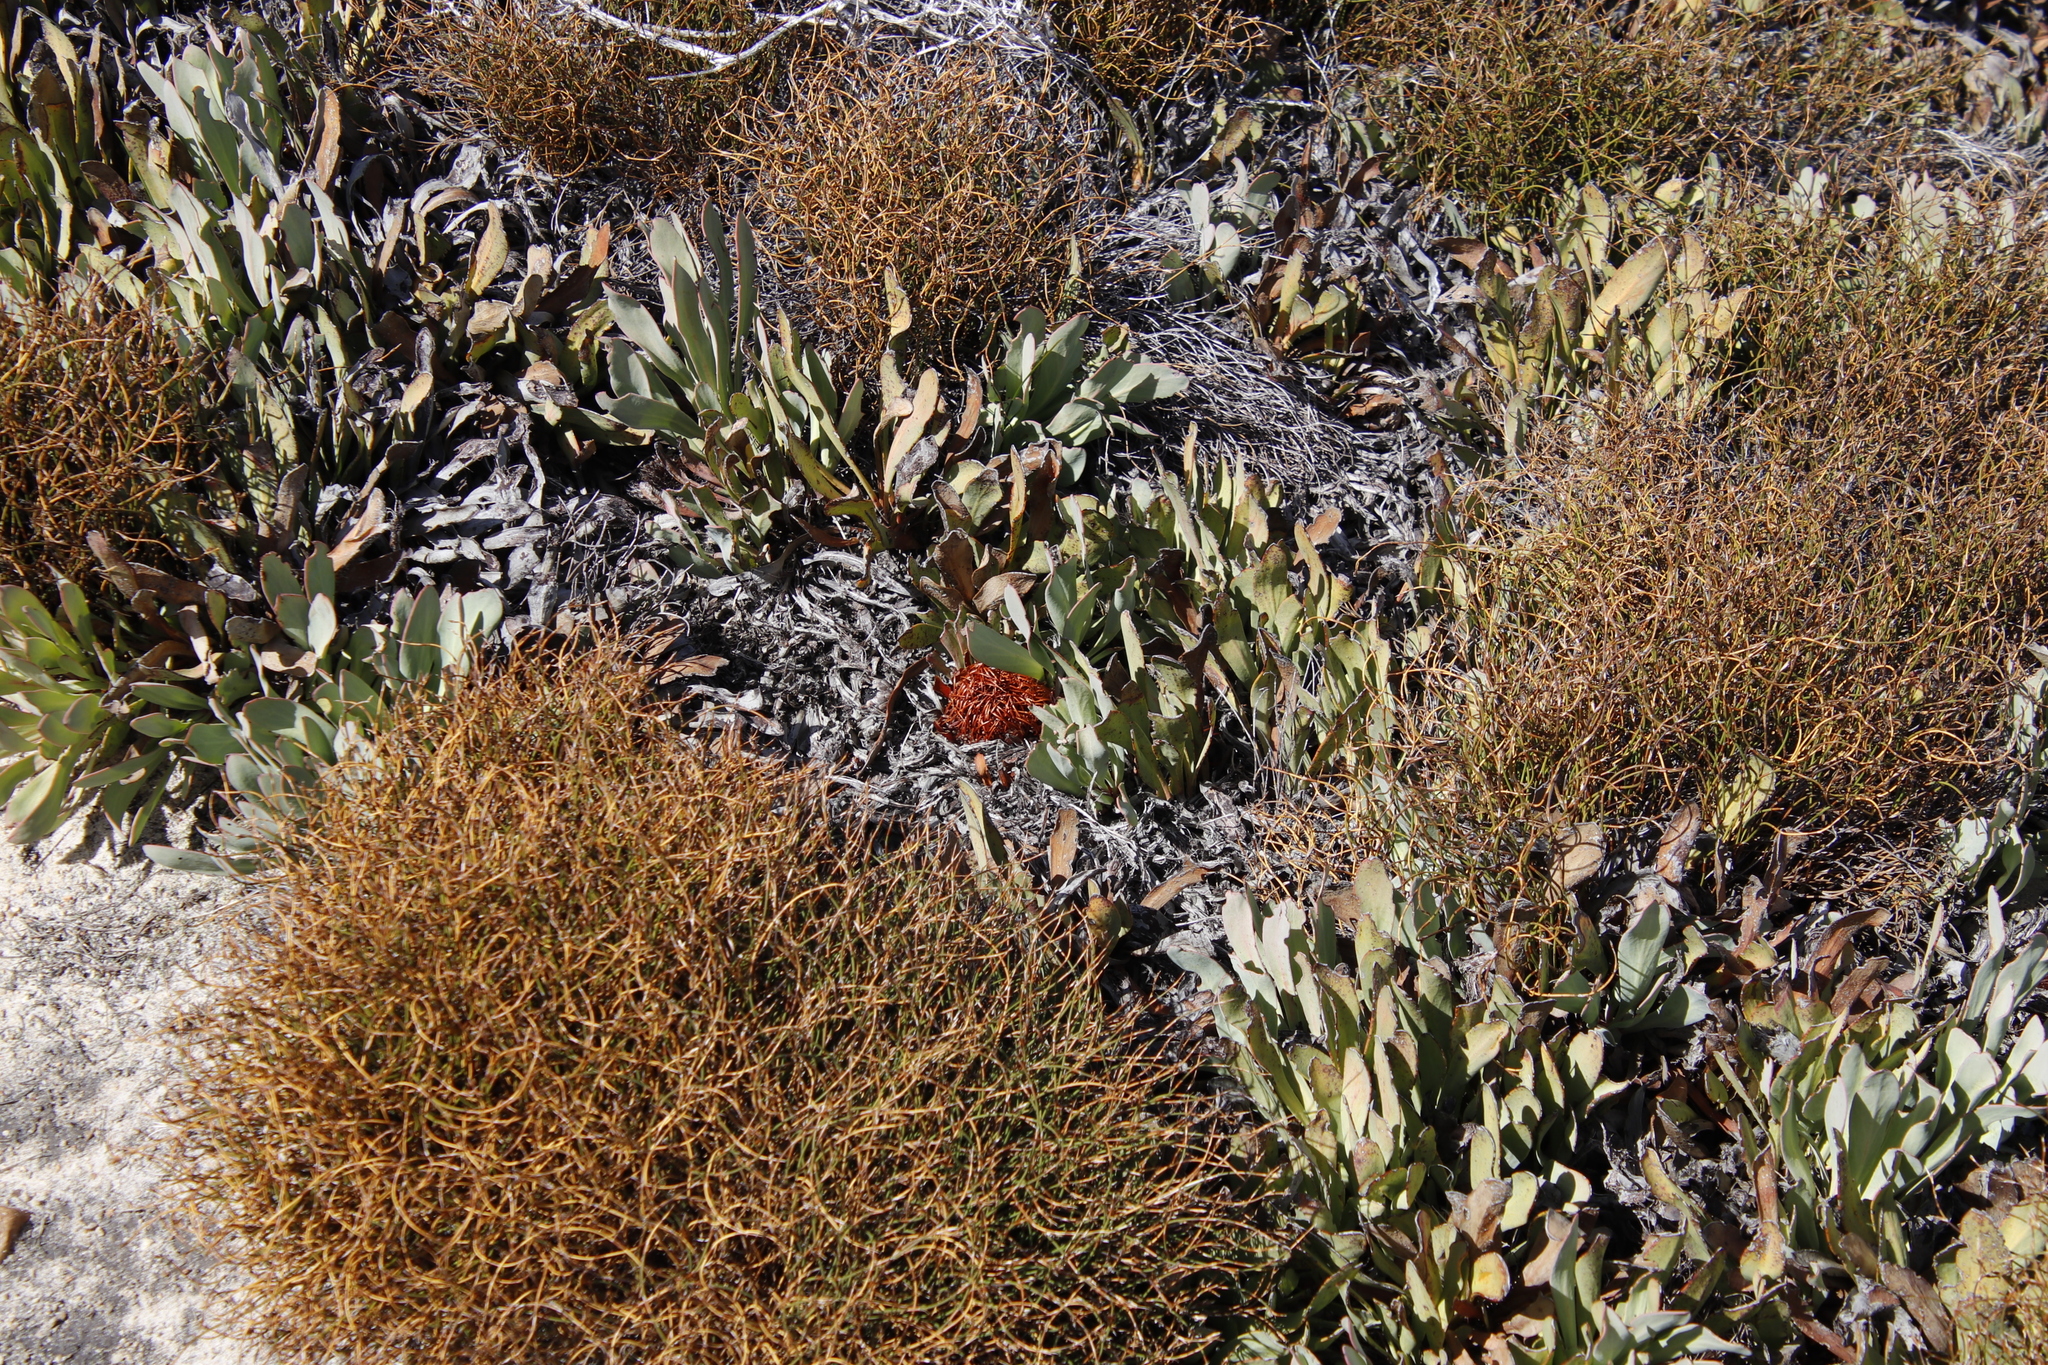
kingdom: Plantae
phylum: Tracheophyta
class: Magnoliopsida
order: Proteales
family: Proteaceae
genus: Protea
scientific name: Protea laevis
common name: Smooth-leaf sugarbush
